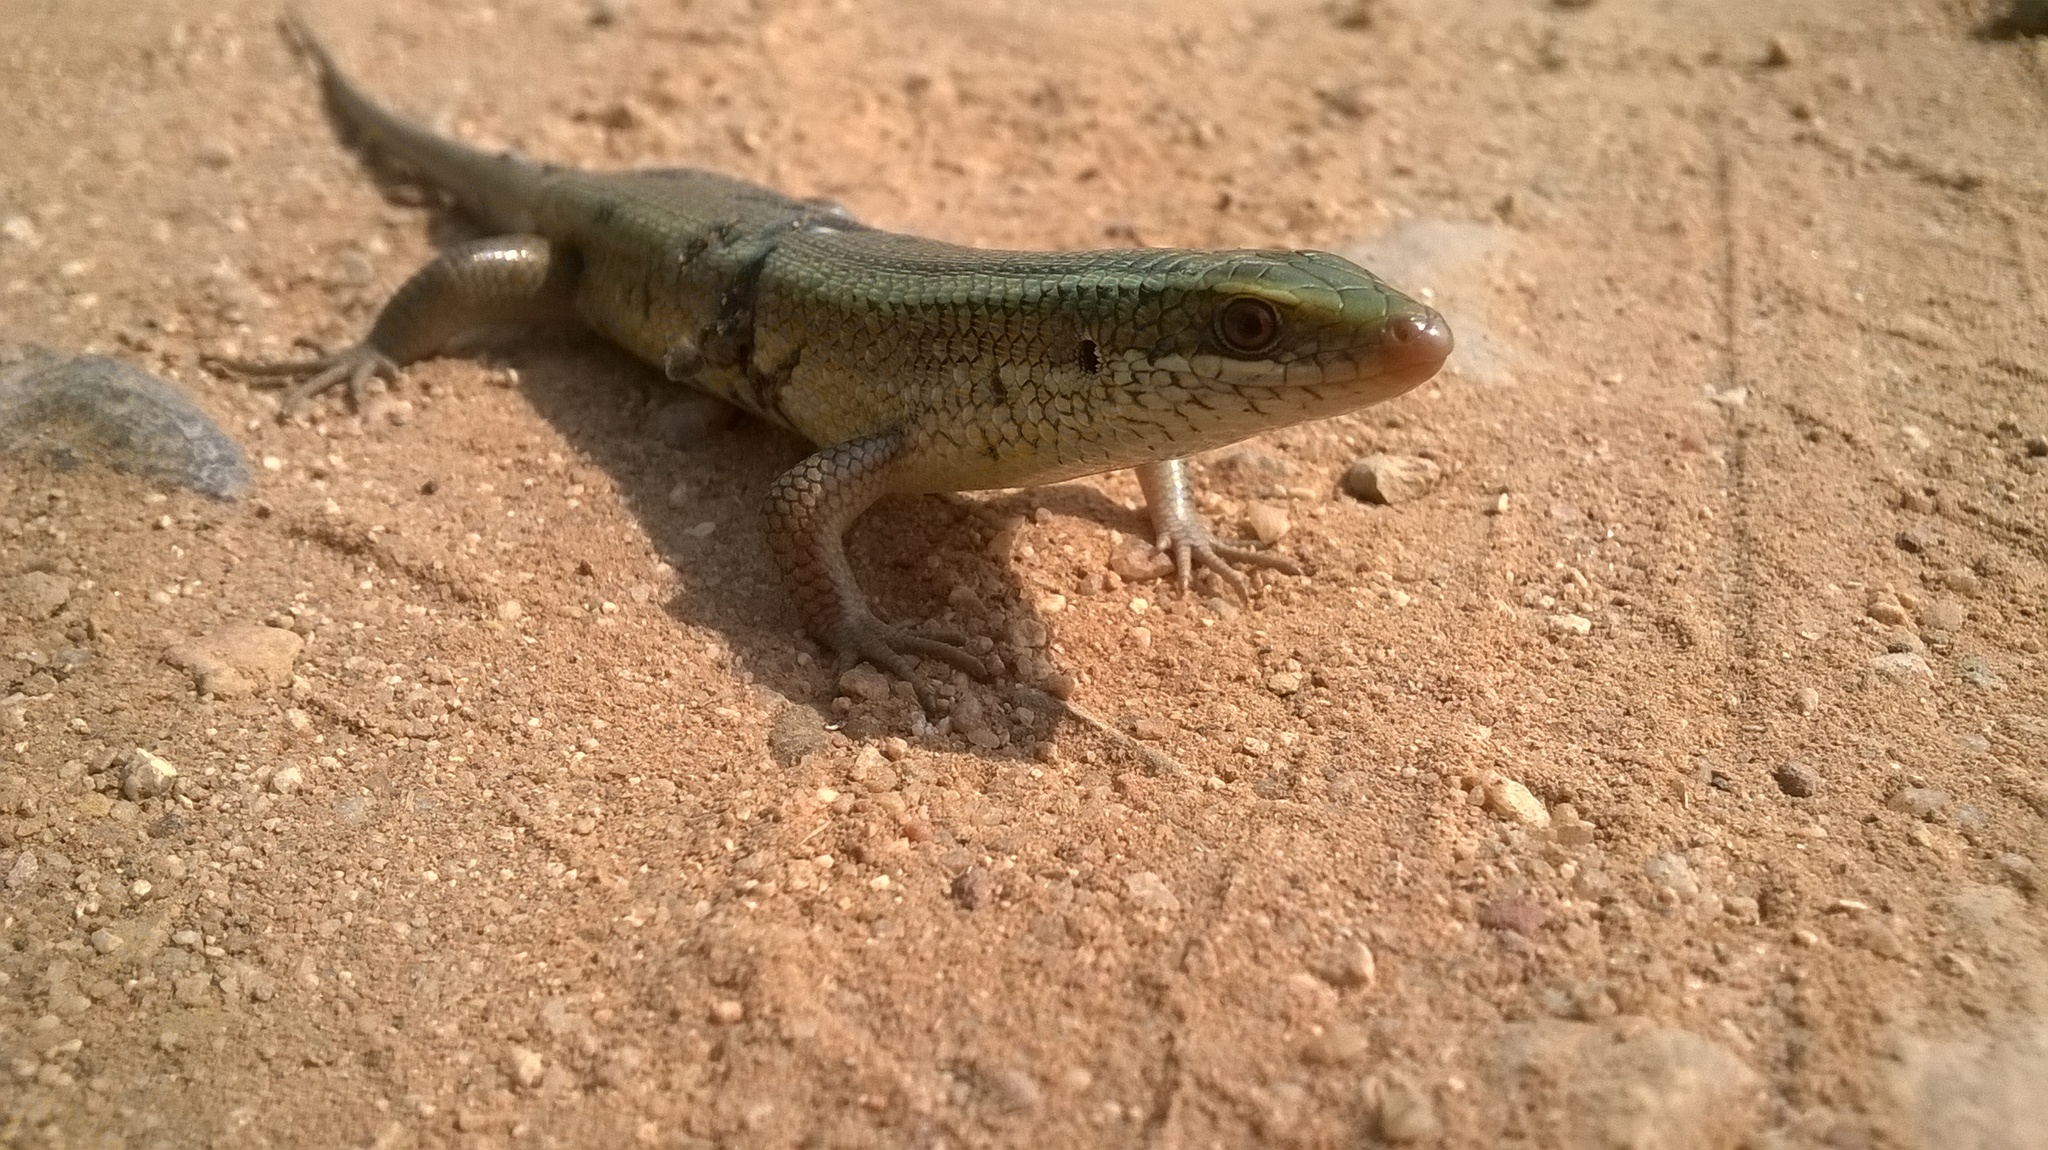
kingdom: Animalia
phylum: Chordata
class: Squamata
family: Scincidae
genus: Eutropis
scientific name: Eutropis carinata
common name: Keeled indian mabuya
